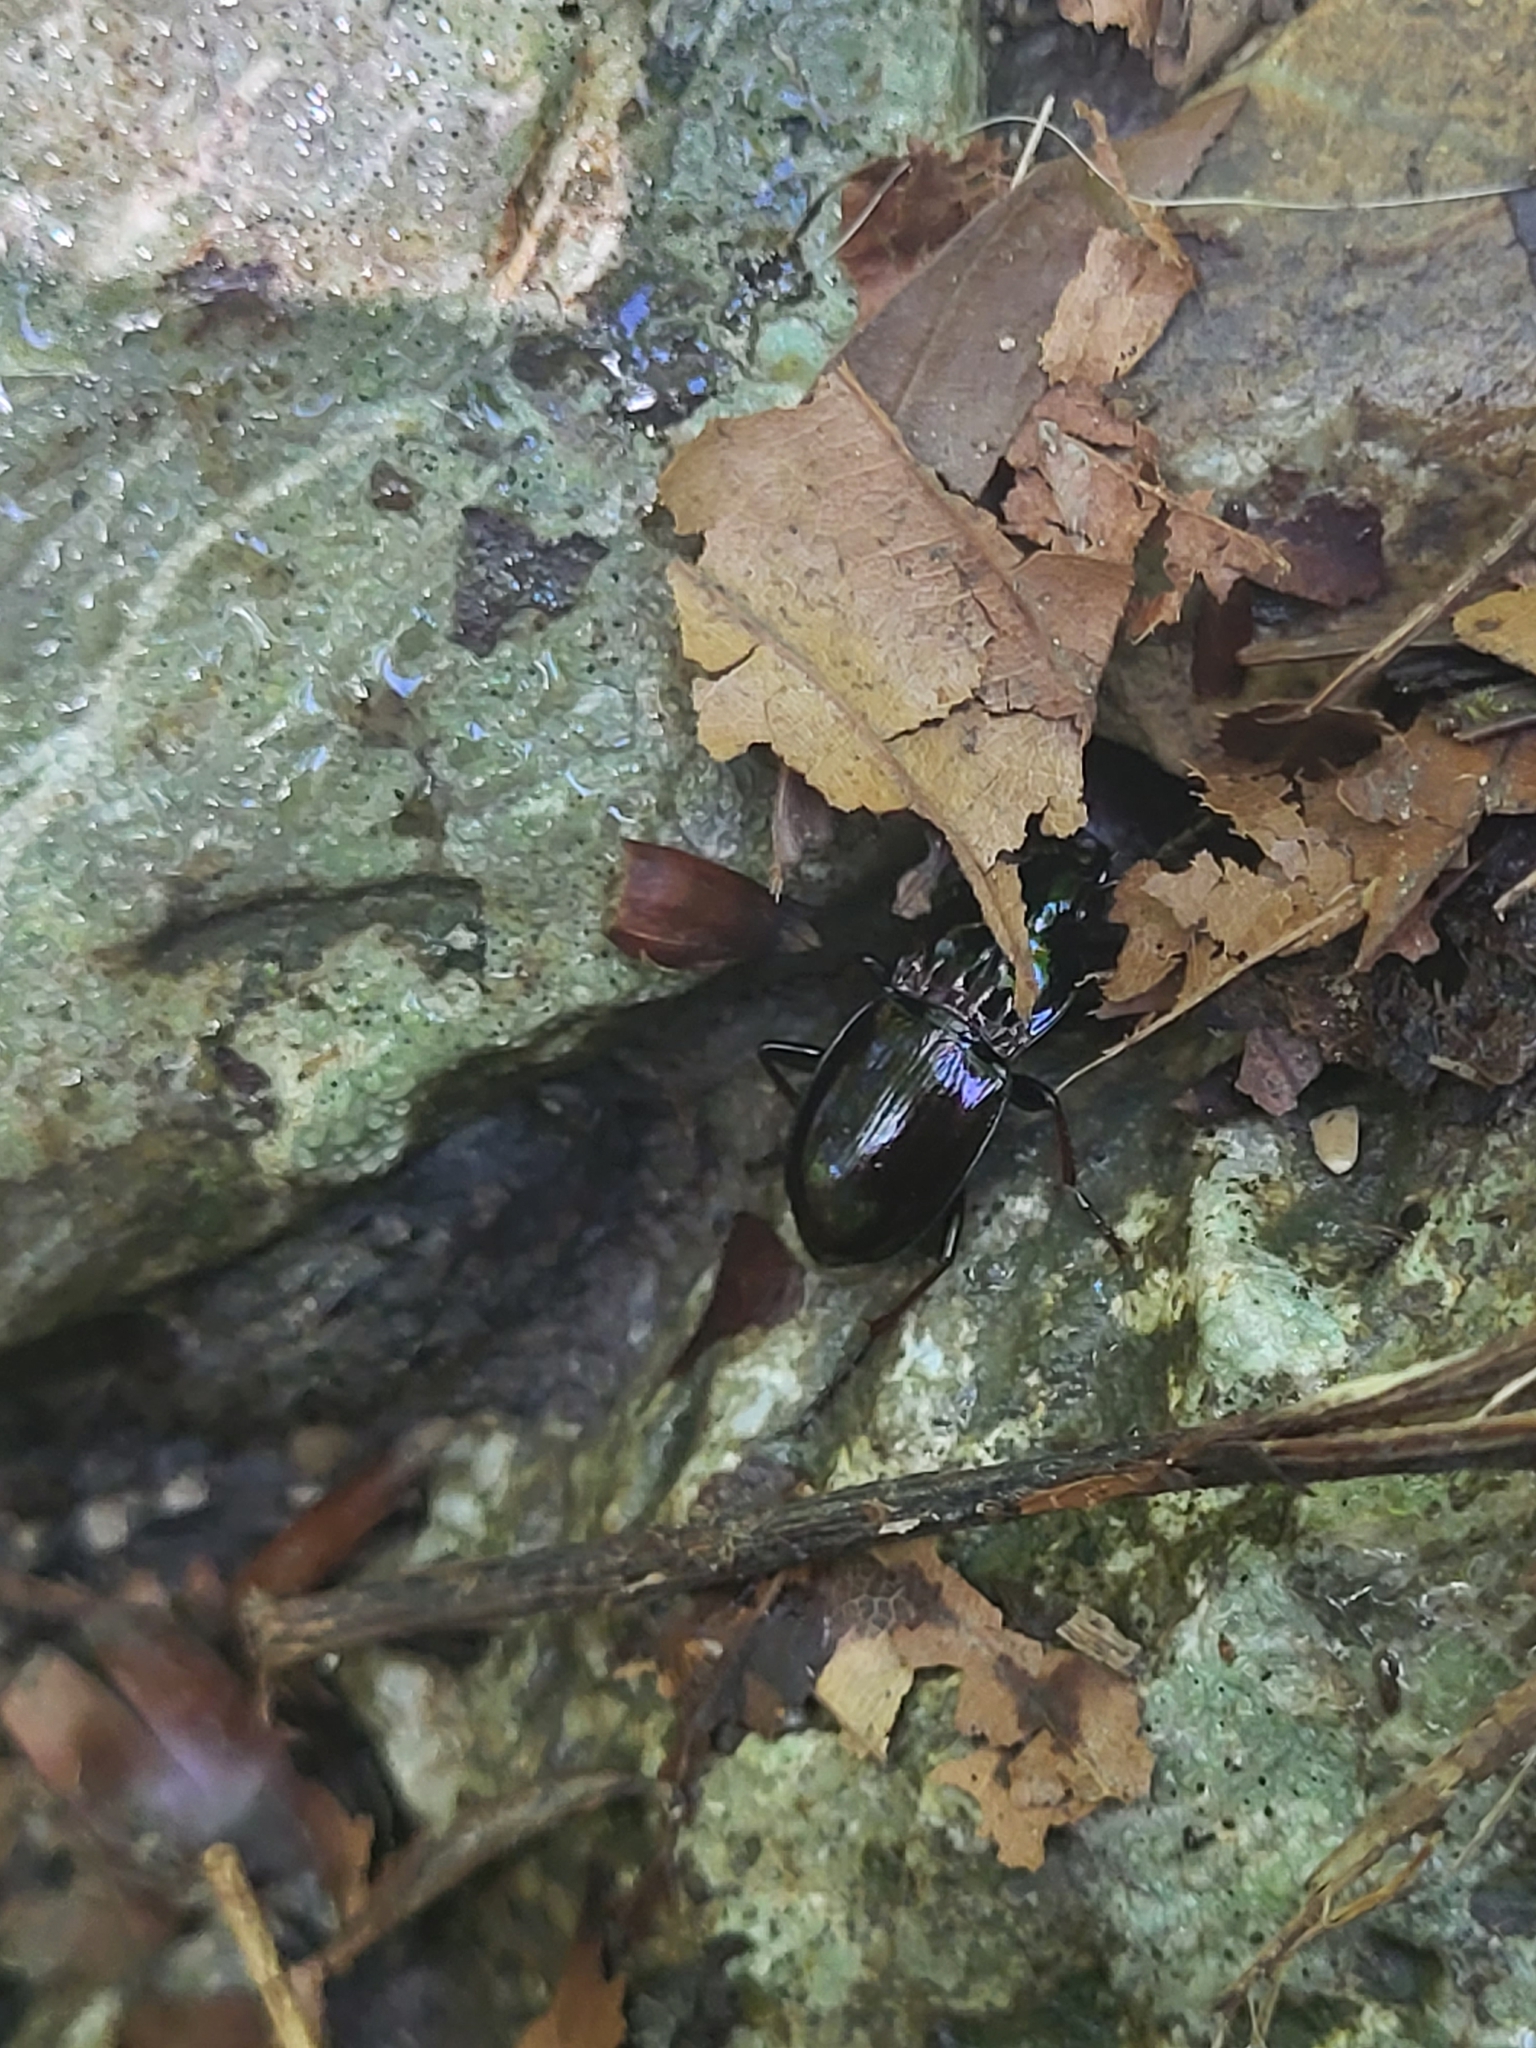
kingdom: Animalia
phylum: Arthropoda
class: Insecta
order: Coleoptera
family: Carabidae
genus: Pterostichus
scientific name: Pterostichus burmeisteri
